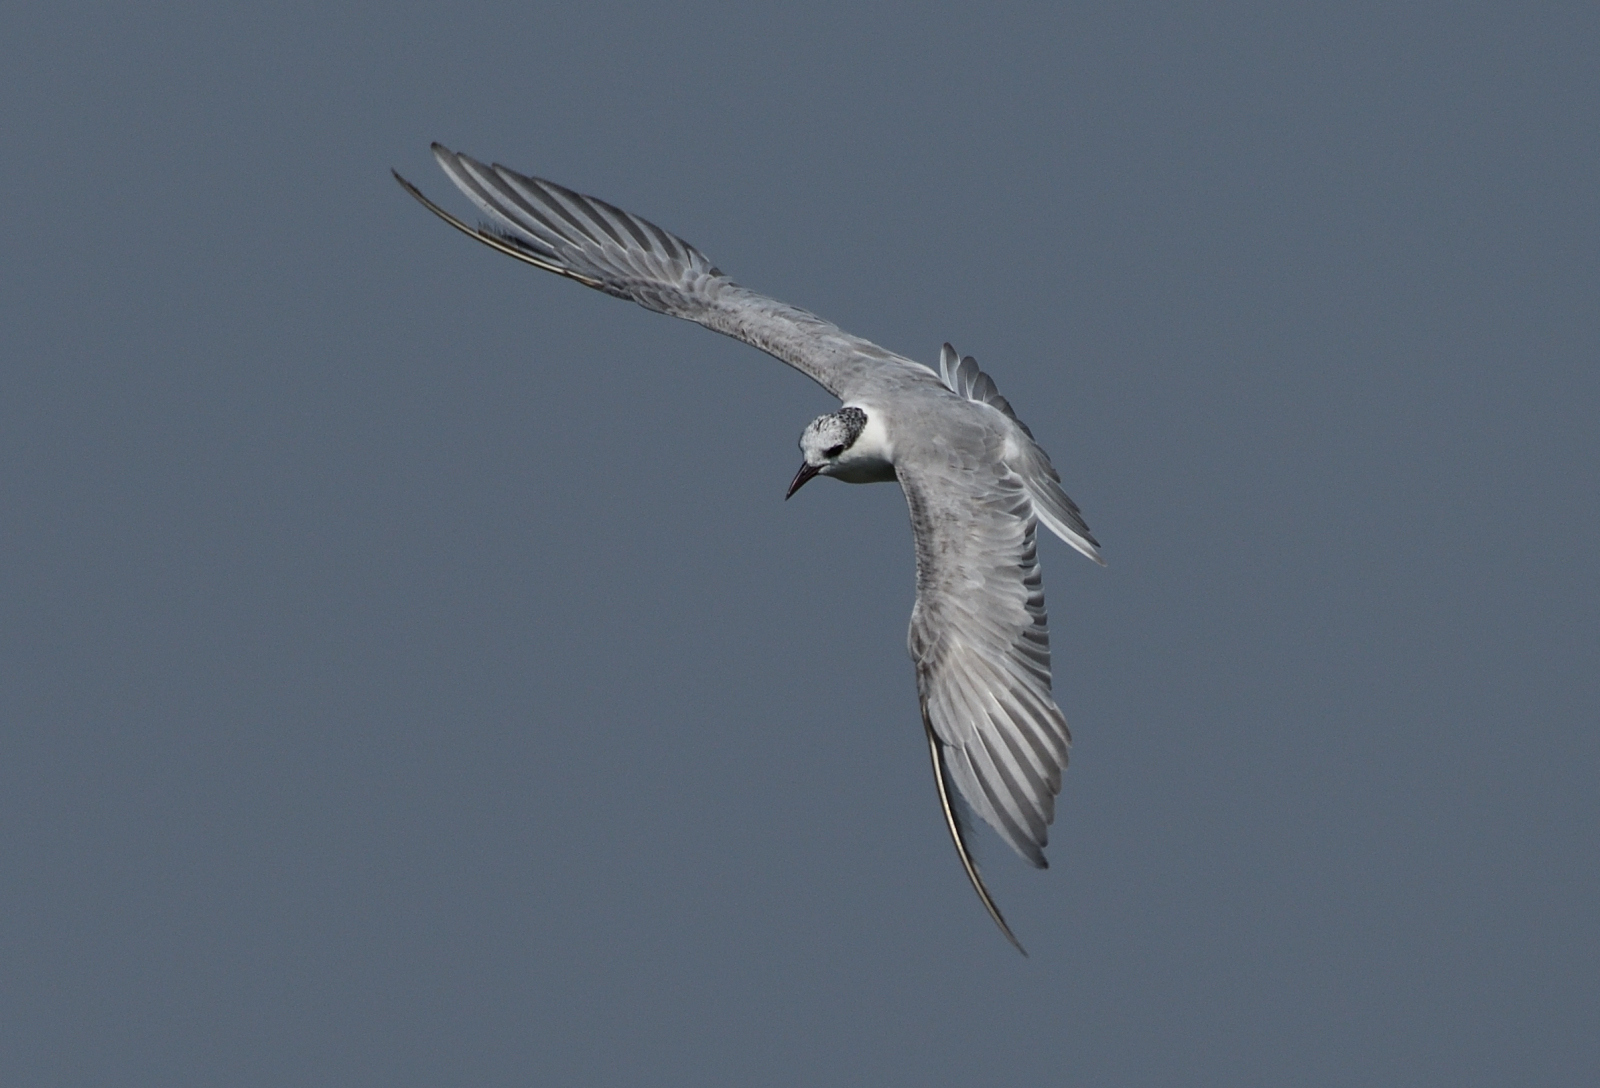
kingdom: Animalia
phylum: Chordata
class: Aves
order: Charadriiformes
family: Laridae
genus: Chlidonias
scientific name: Chlidonias hybrida
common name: Whiskered tern
